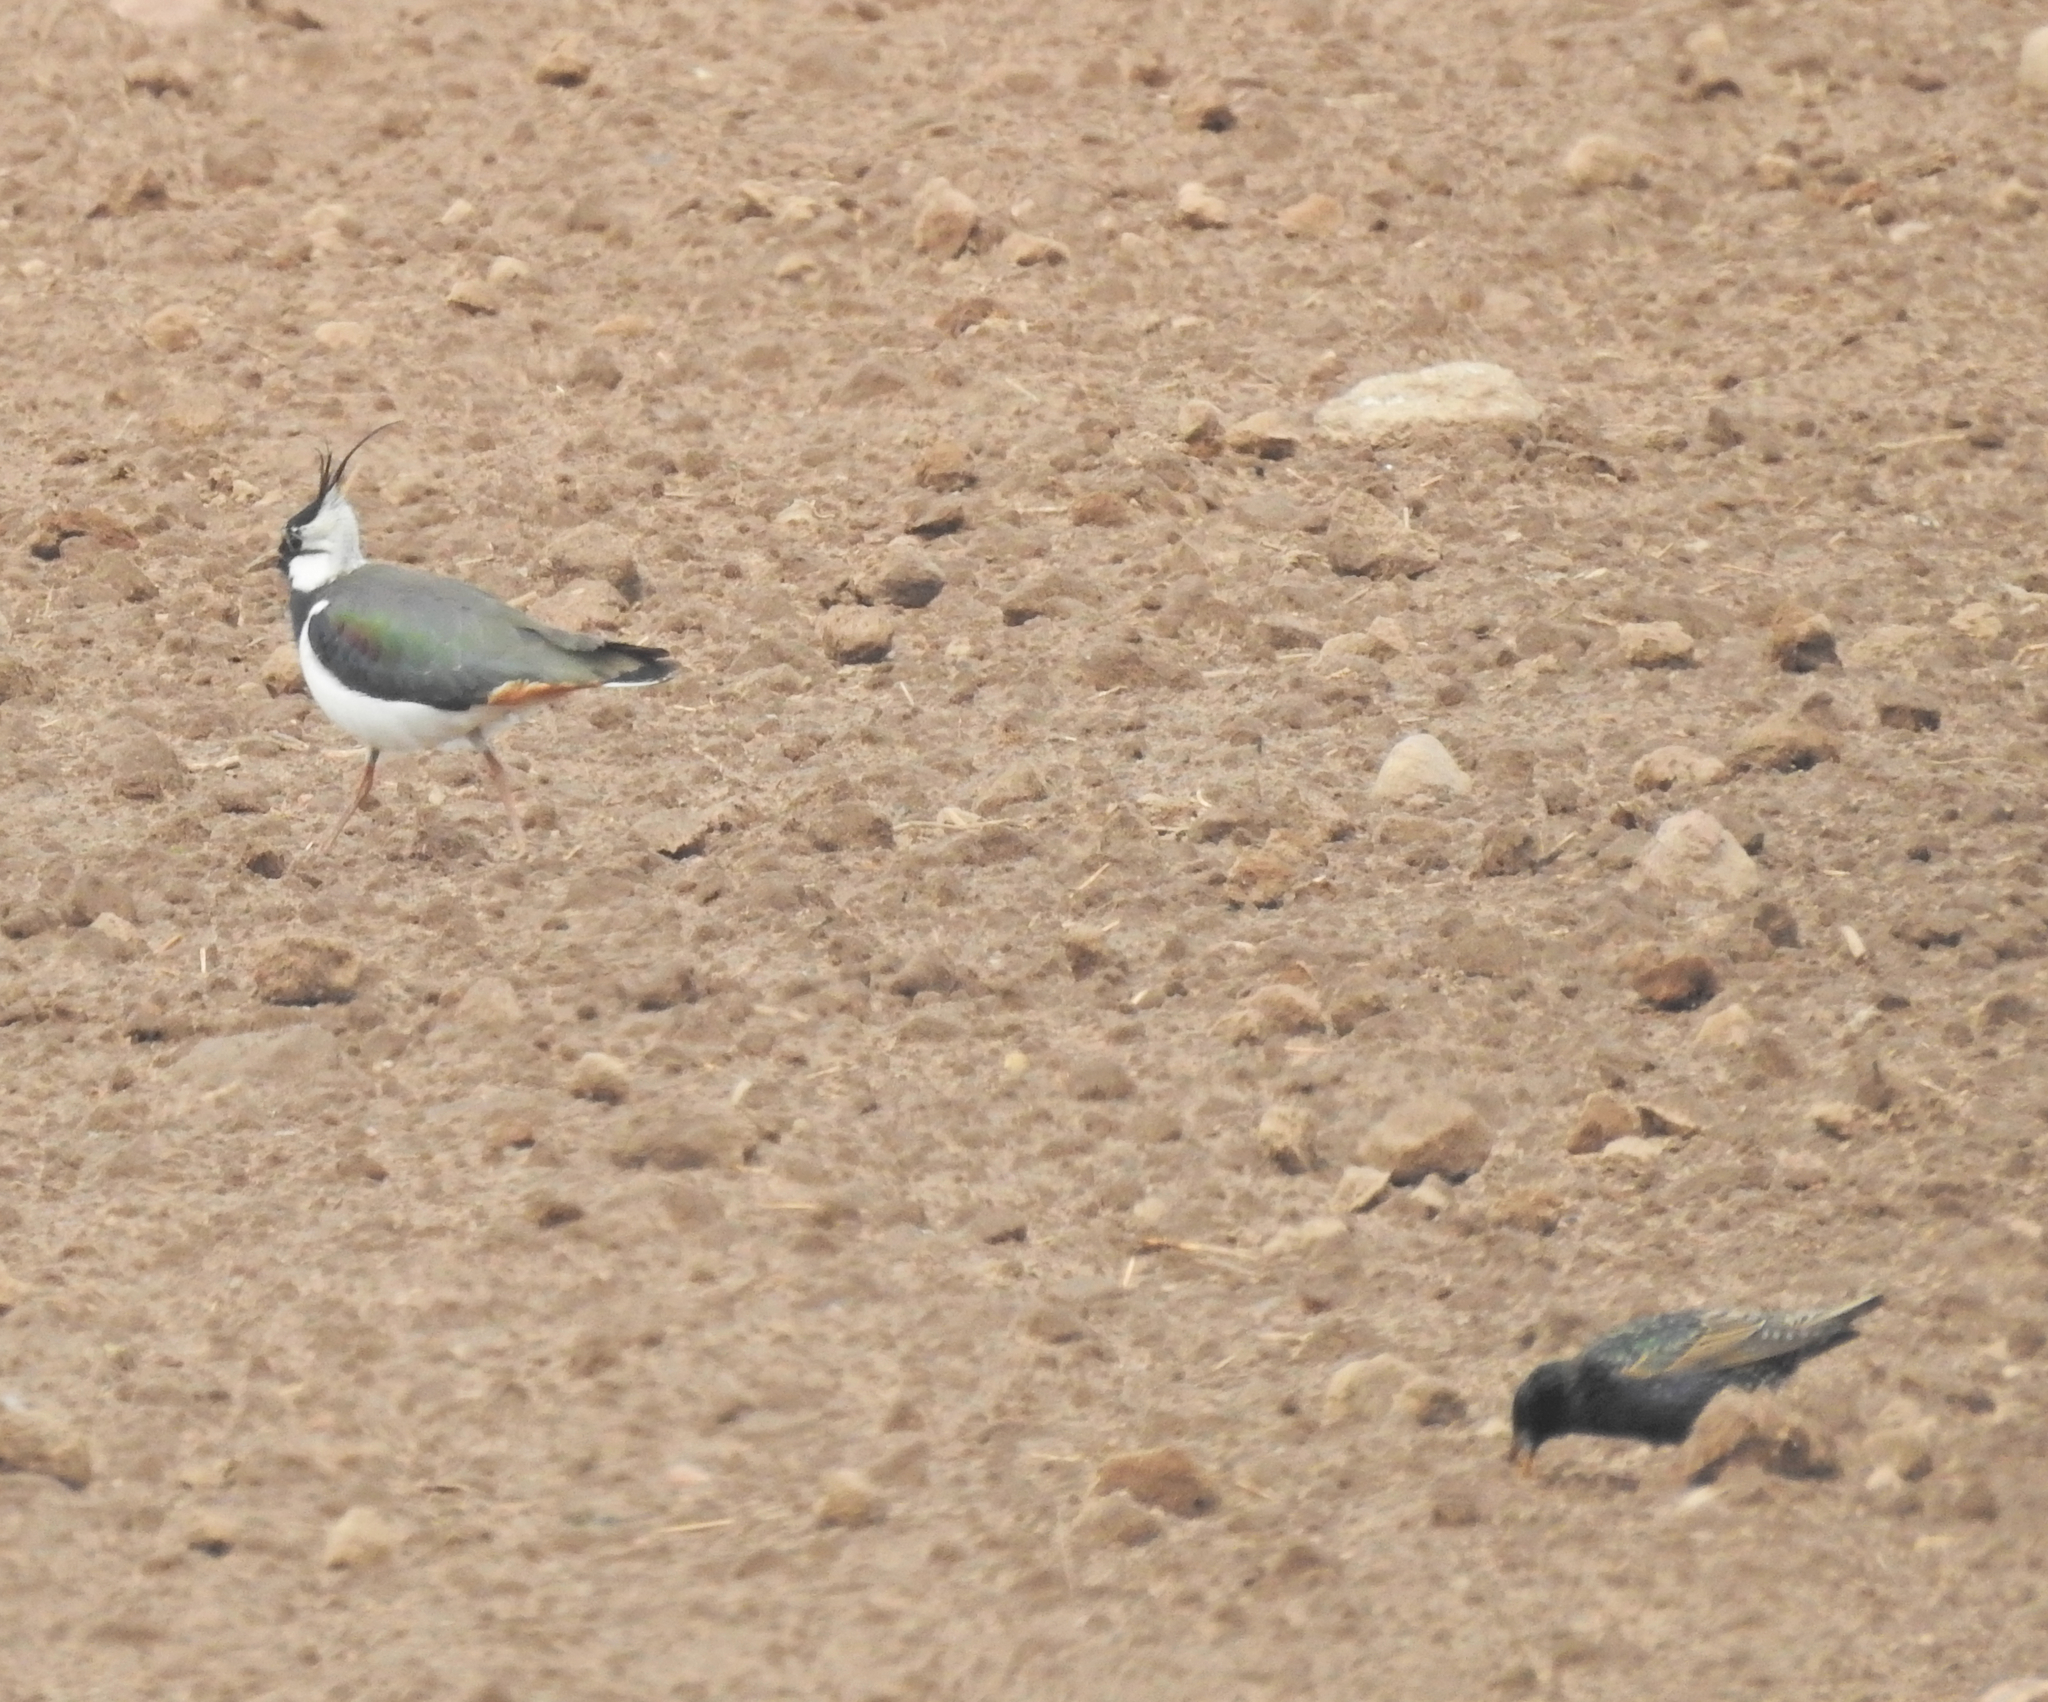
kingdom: Animalia
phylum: Chordata
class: Aves
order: Passeriformes
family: Sturnidae
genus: Sturnus
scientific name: Sturnus vulgaris
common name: Common starling
